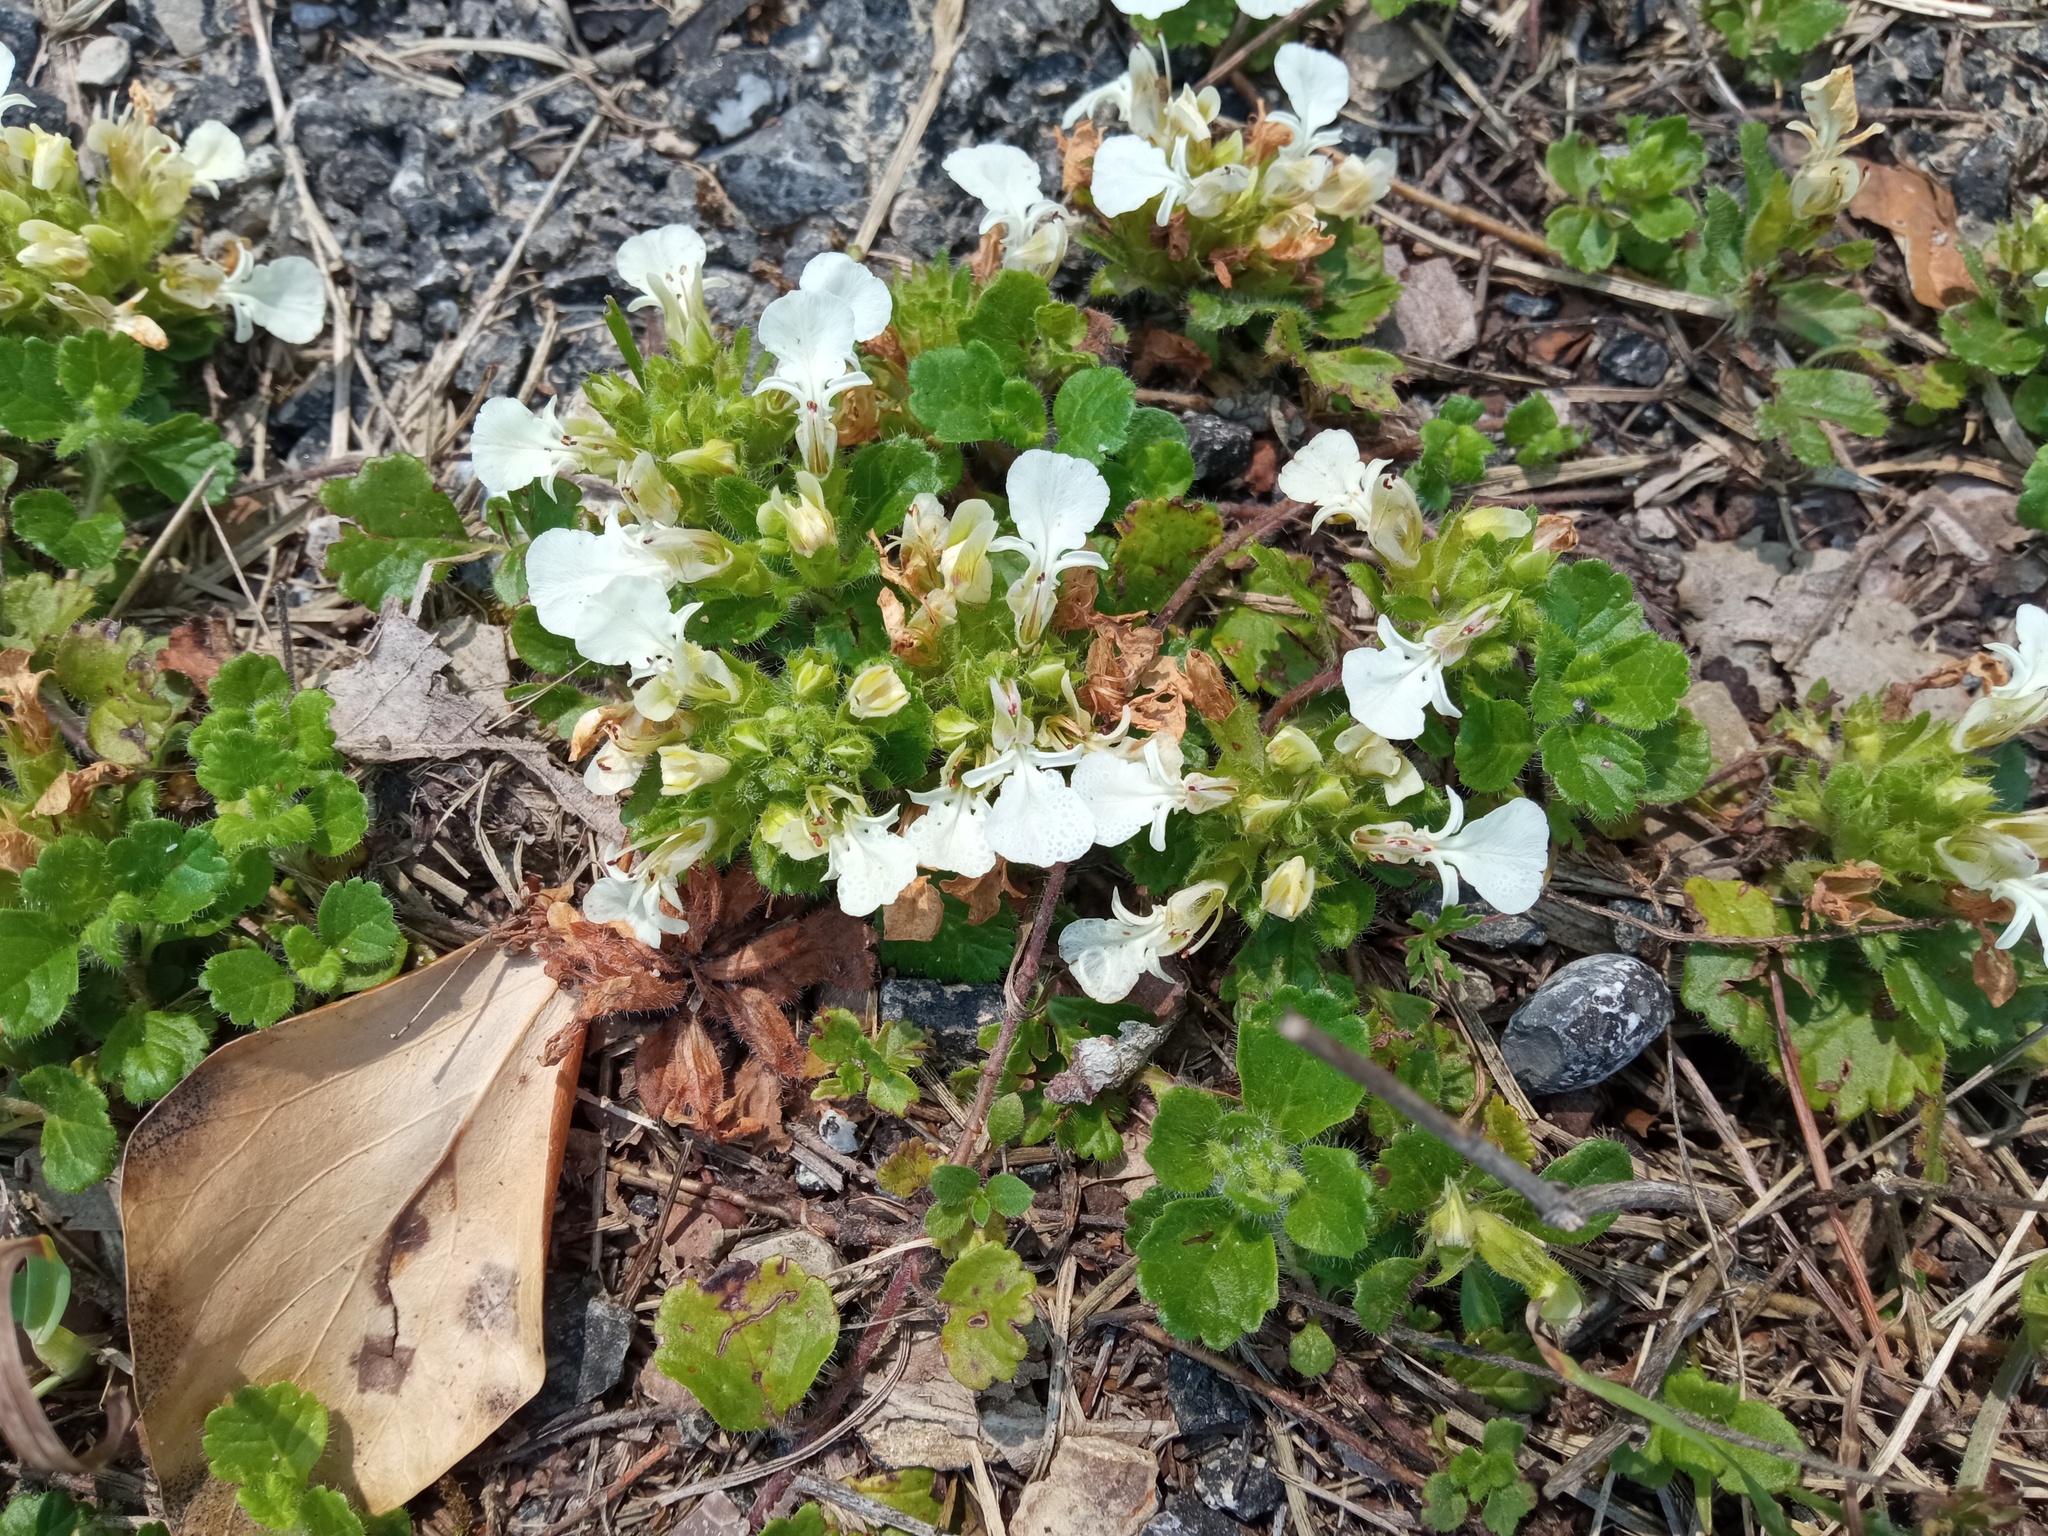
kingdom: Plantae
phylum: Tracheophyta
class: Magnoliopsida
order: Lamiales
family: Lamiaceae
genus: Teucrium
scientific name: Teucrium pyrenaicum
